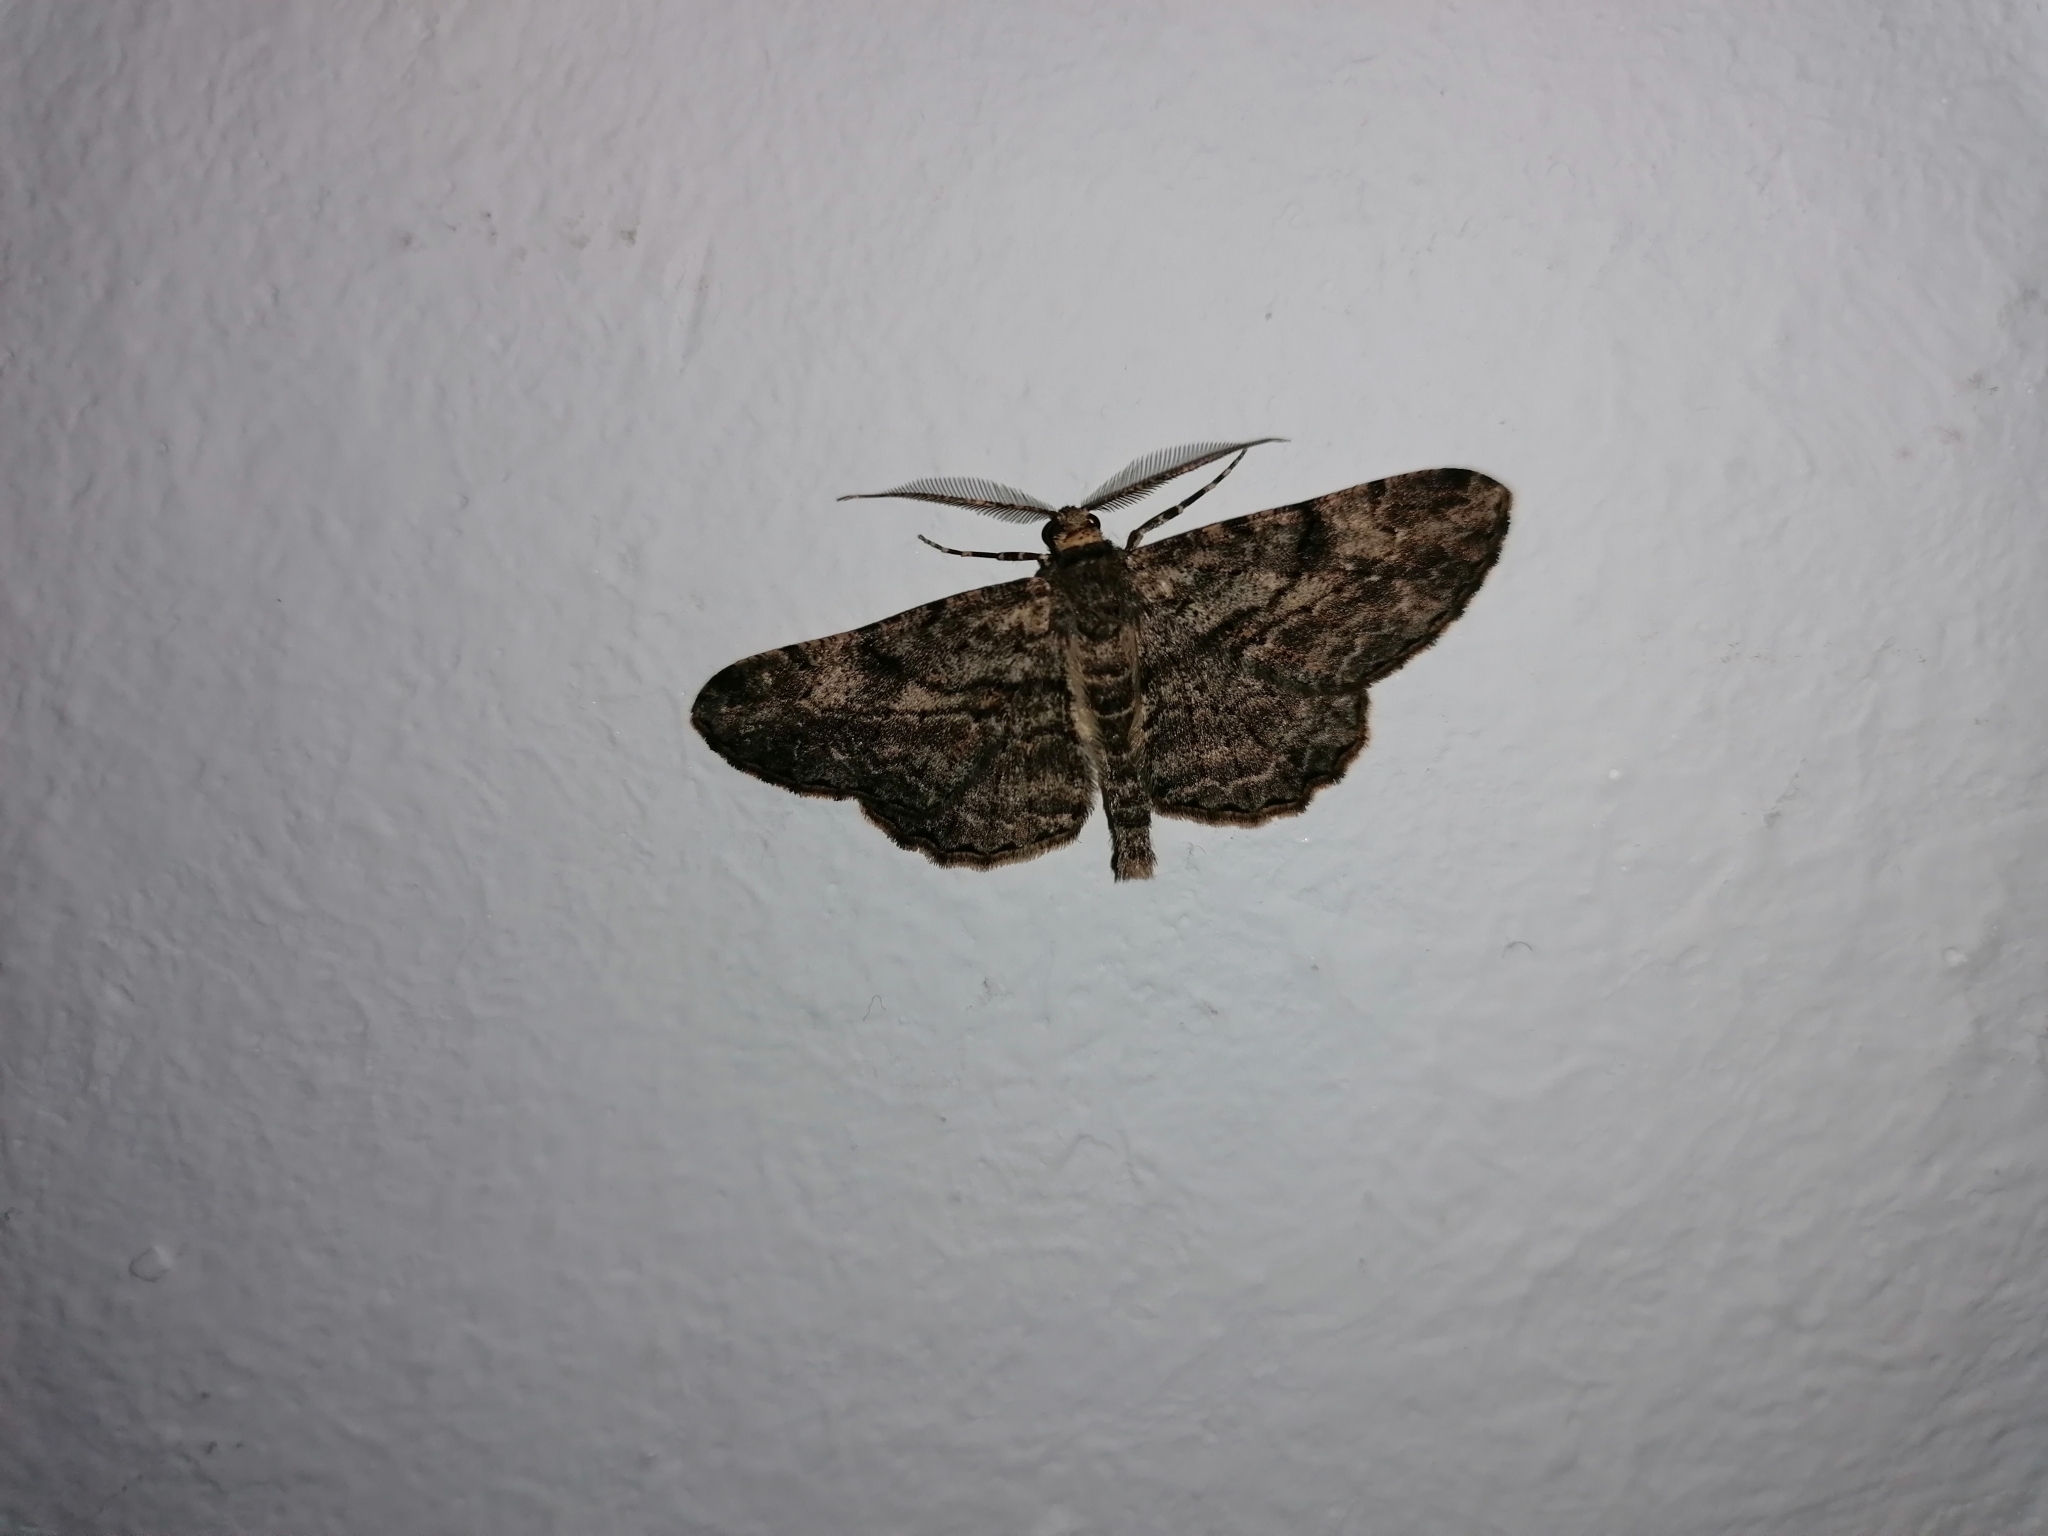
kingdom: Animalia
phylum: Arthropoda
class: Insecta
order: Lepidoptera
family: Geometridae
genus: Peribatodes
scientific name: Peribatodes rhomboidaria
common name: Willow beauty
